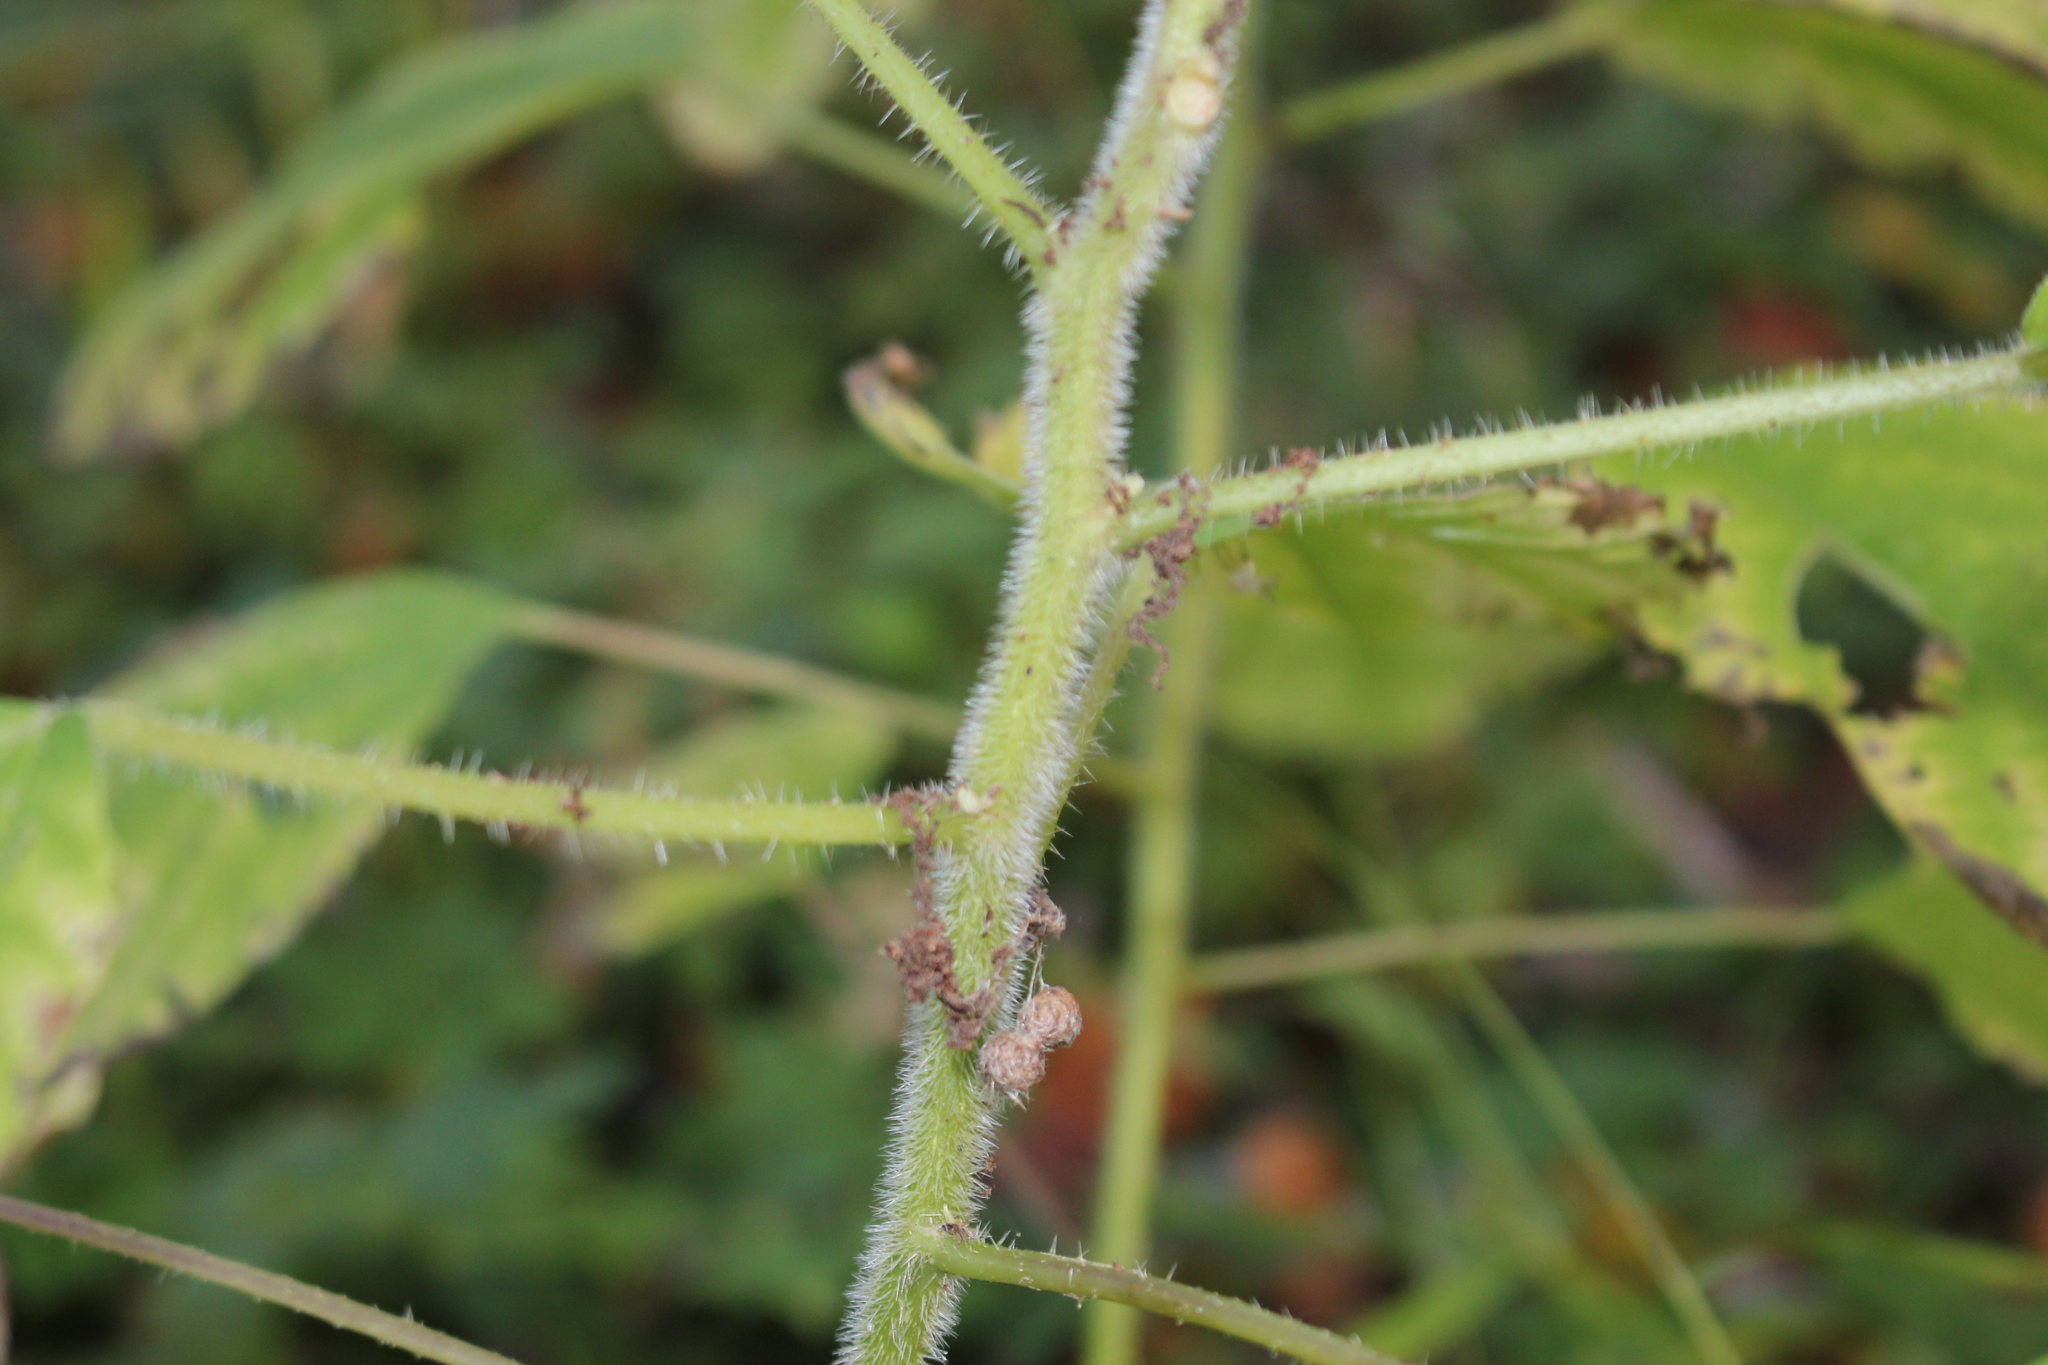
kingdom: Plantae
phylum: Tracheophyta
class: Magnoliopsida
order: Rosales
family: Urticaceae
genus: Laportea
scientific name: Laportea canadensis
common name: Canada nettle
